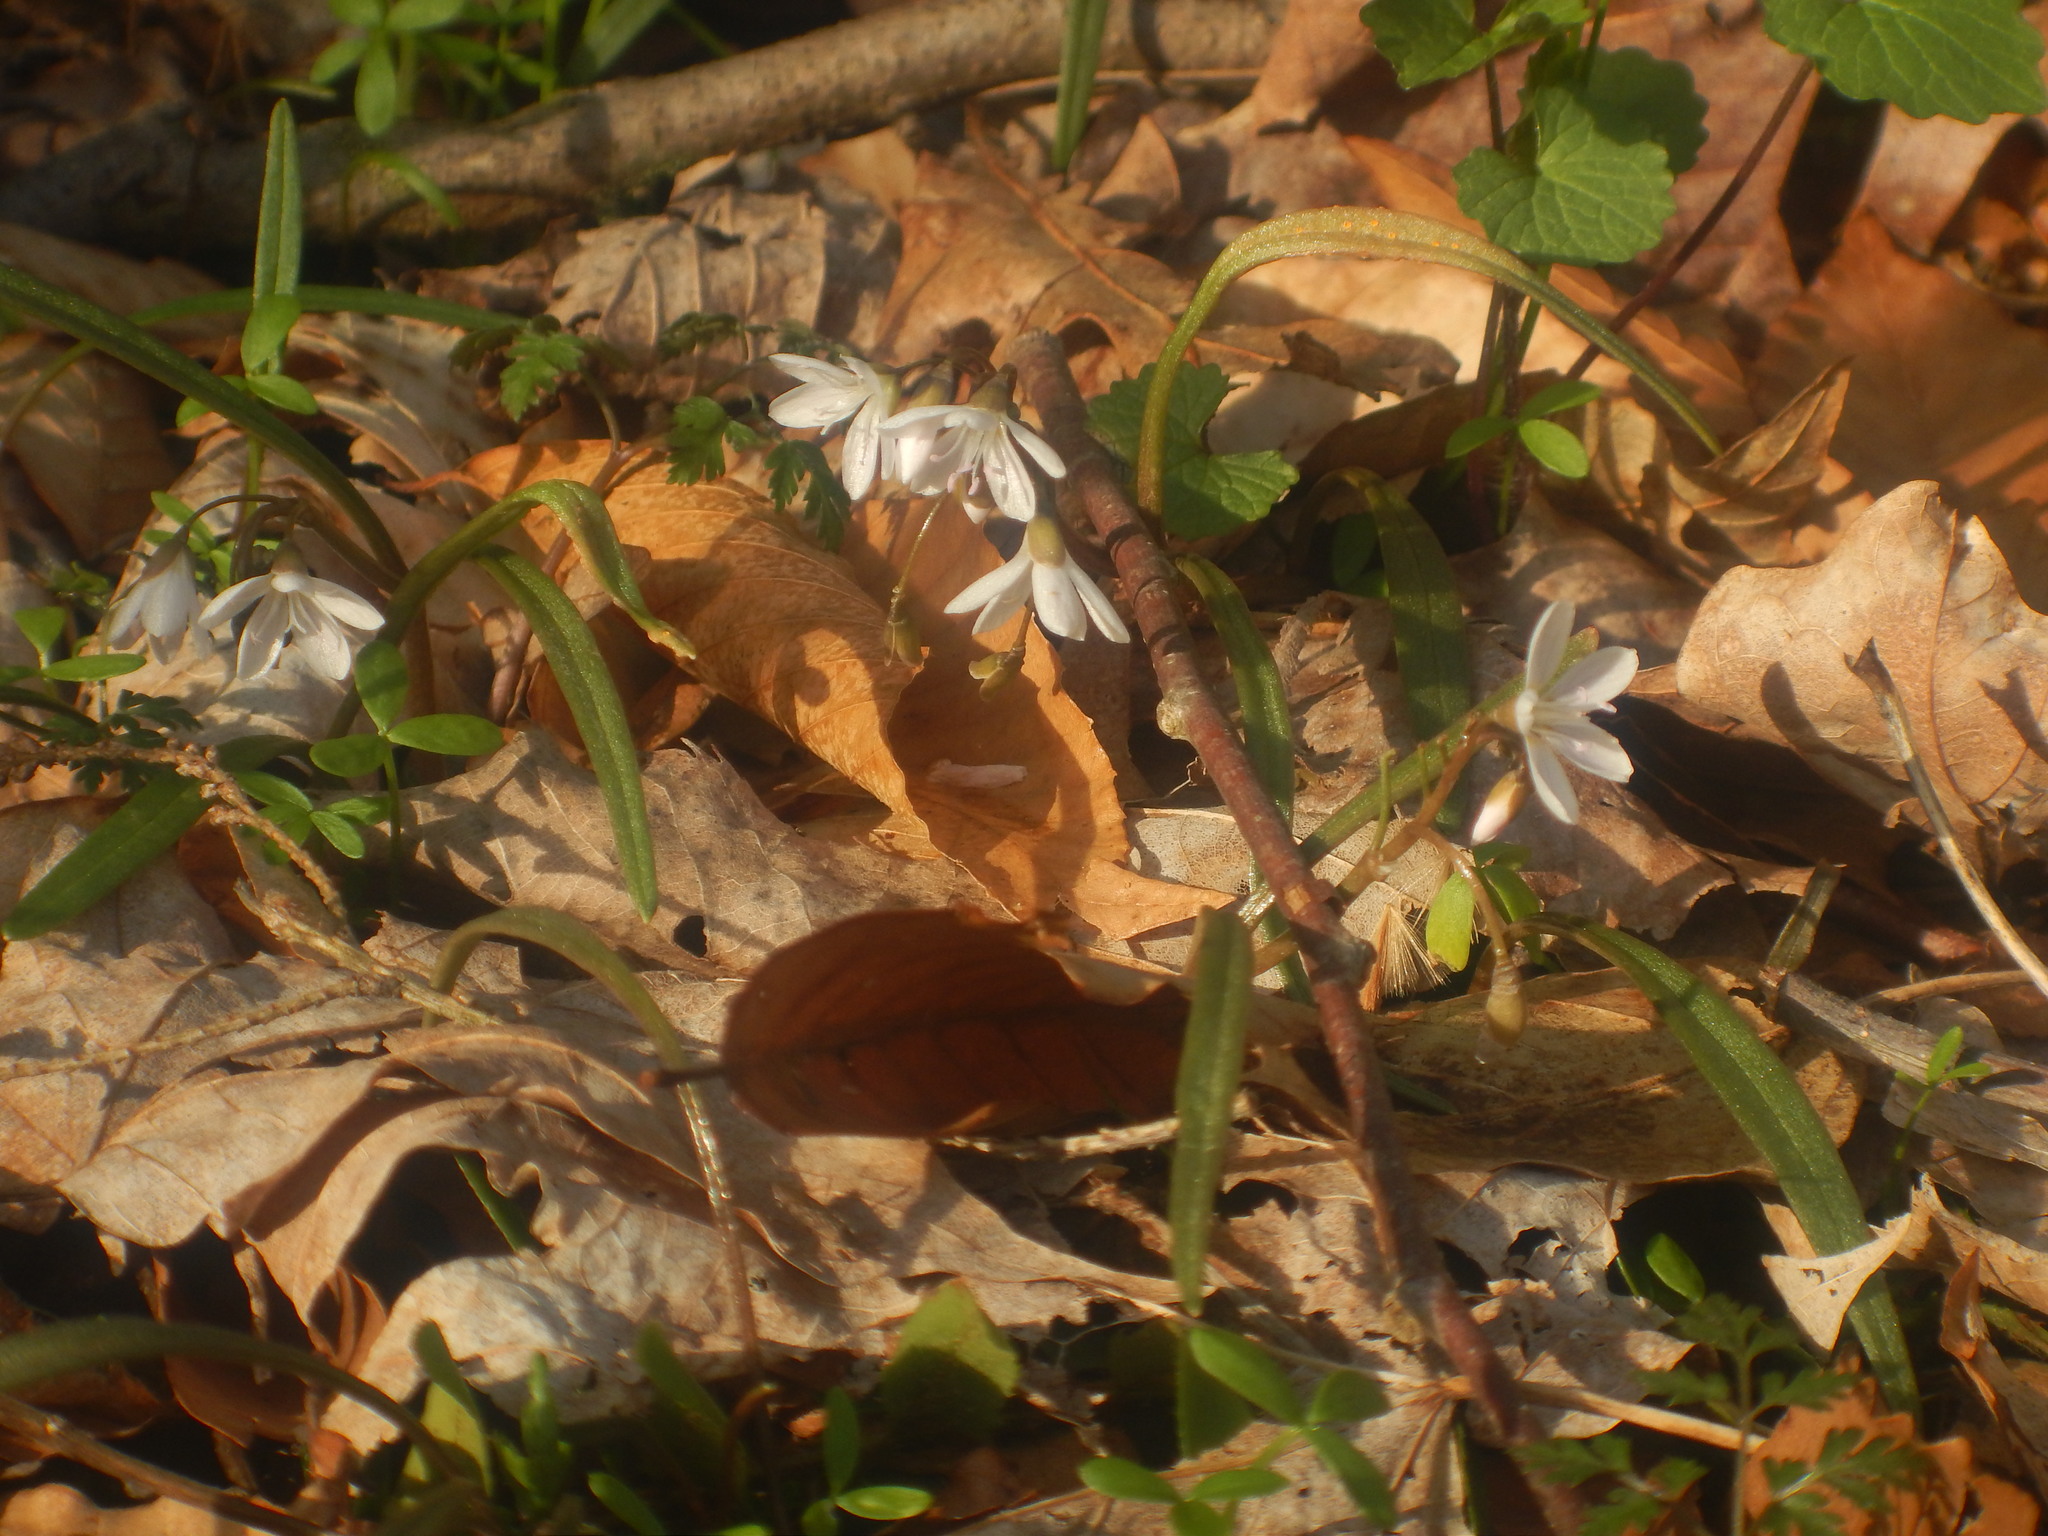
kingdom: Plantae
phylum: Tracheophyta
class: Magnoliopsida
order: Caryophyllales
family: Montiaceae
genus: Claytonia
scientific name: Claytonia virginica
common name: Virginia springbeauty
